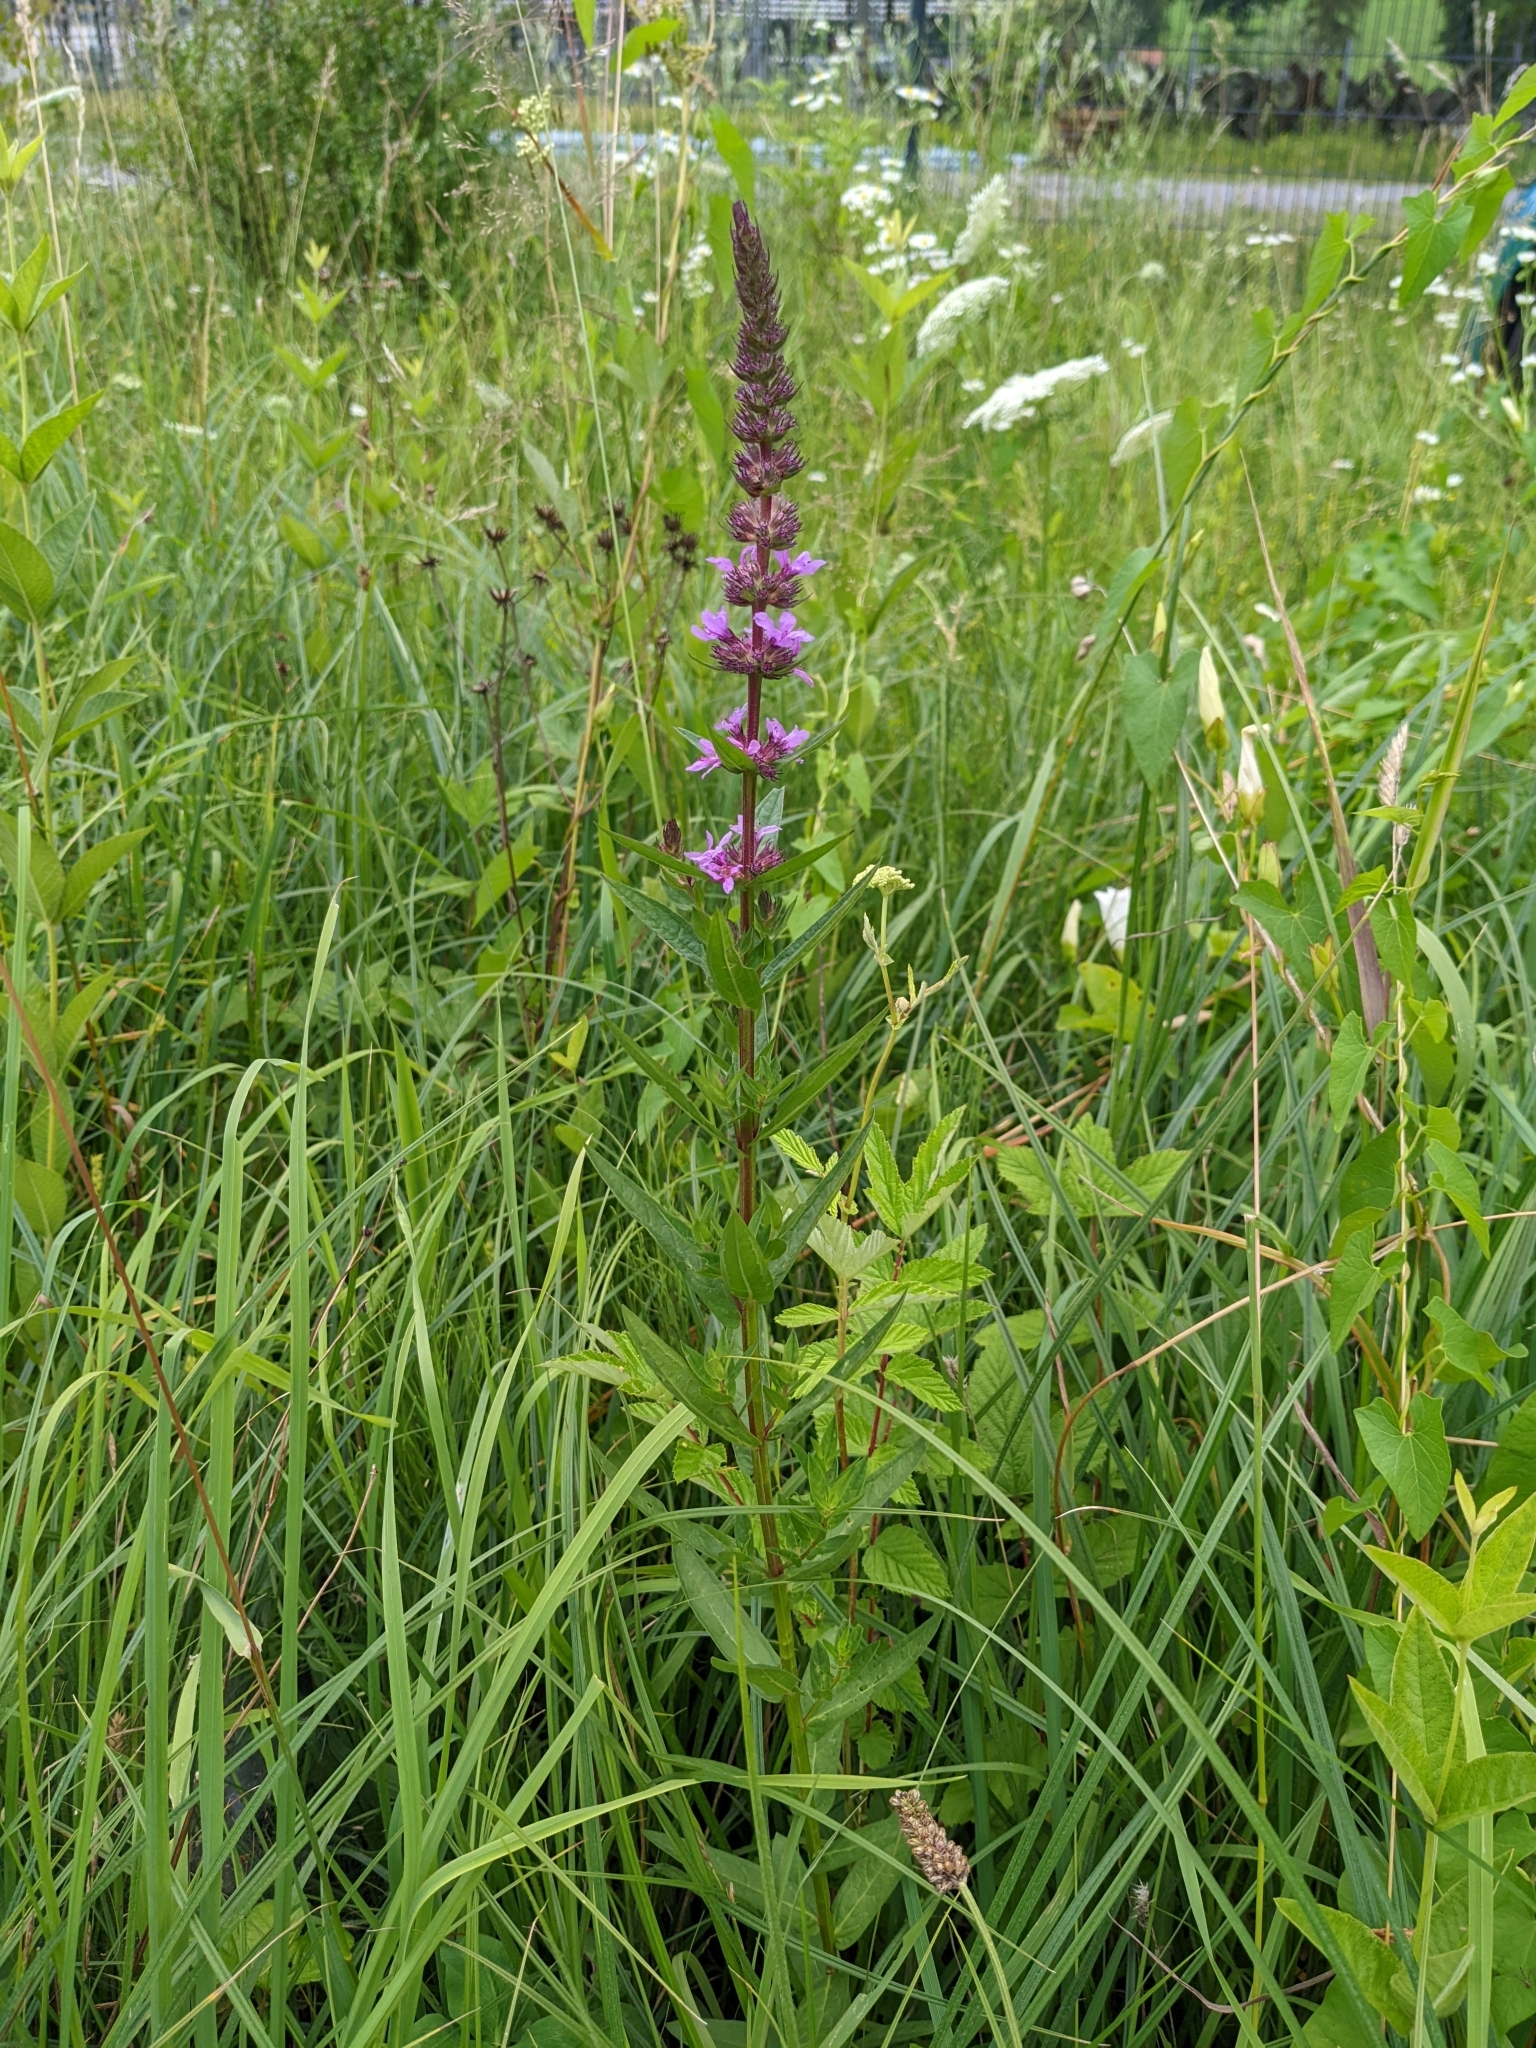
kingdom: Plantae
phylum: Tracheophyta
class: Magnoliopsida
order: Myrtales
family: Lythraceae
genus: Lythrum
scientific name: Lythrum salicaria
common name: Purple loosestrife
